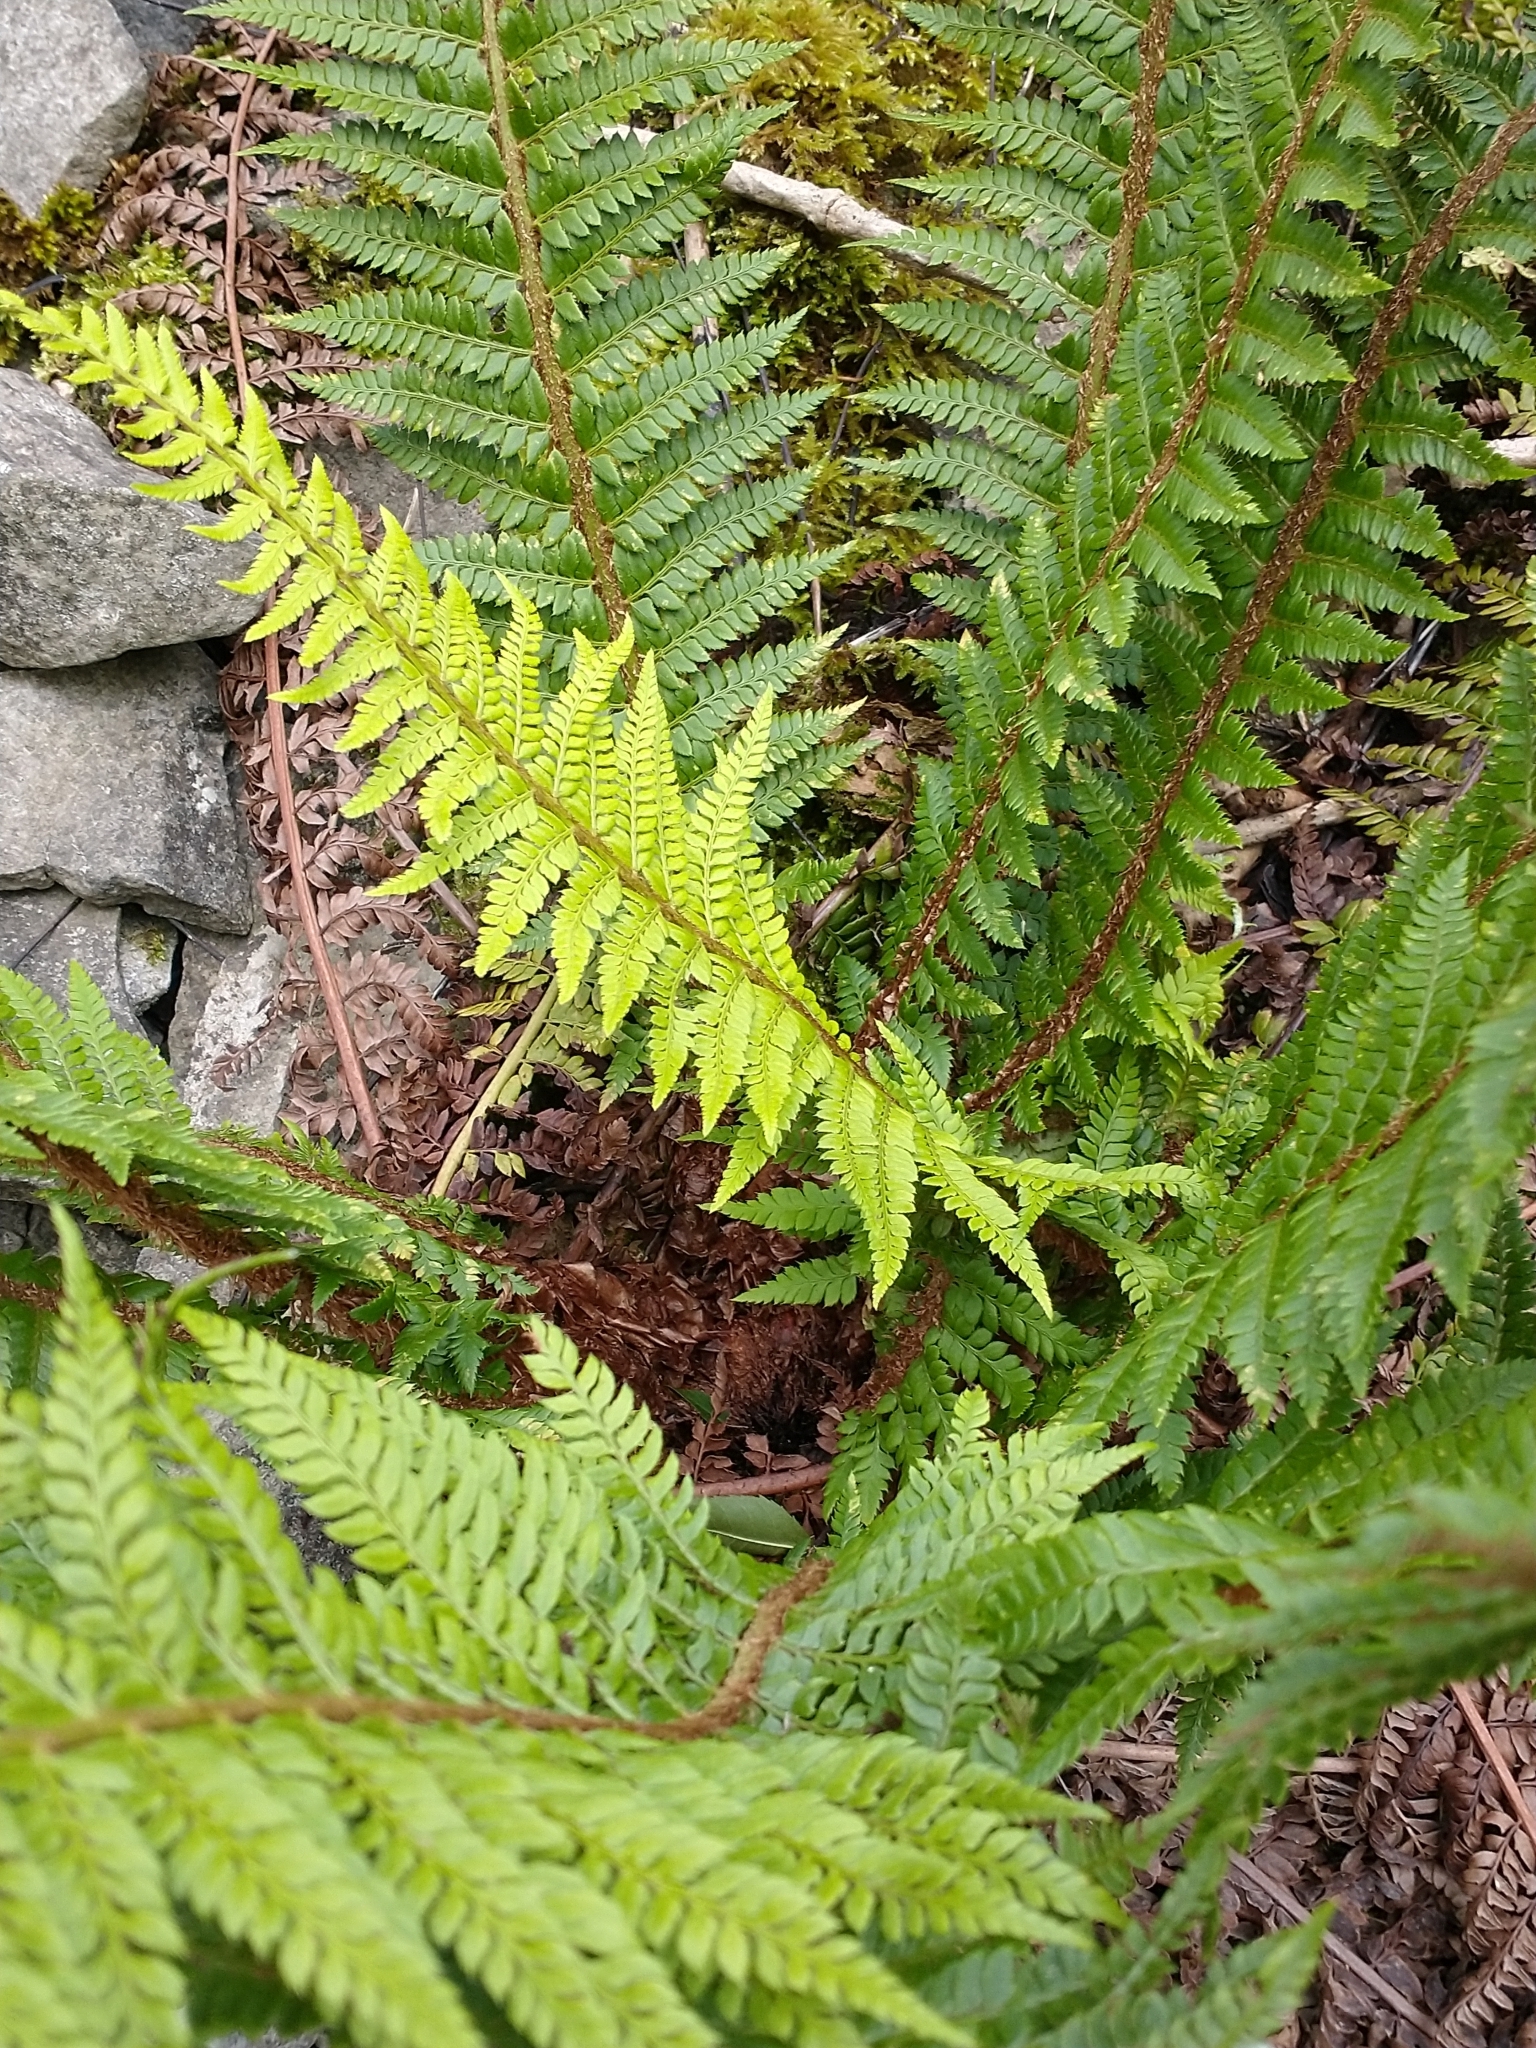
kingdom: Plantae
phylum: Tracheophyta
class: Polypodiopsida
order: Polypodiales
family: Dryopteridaceae
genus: Polystichum
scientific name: Polystichum aculeatum
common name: Hard shield-fern
